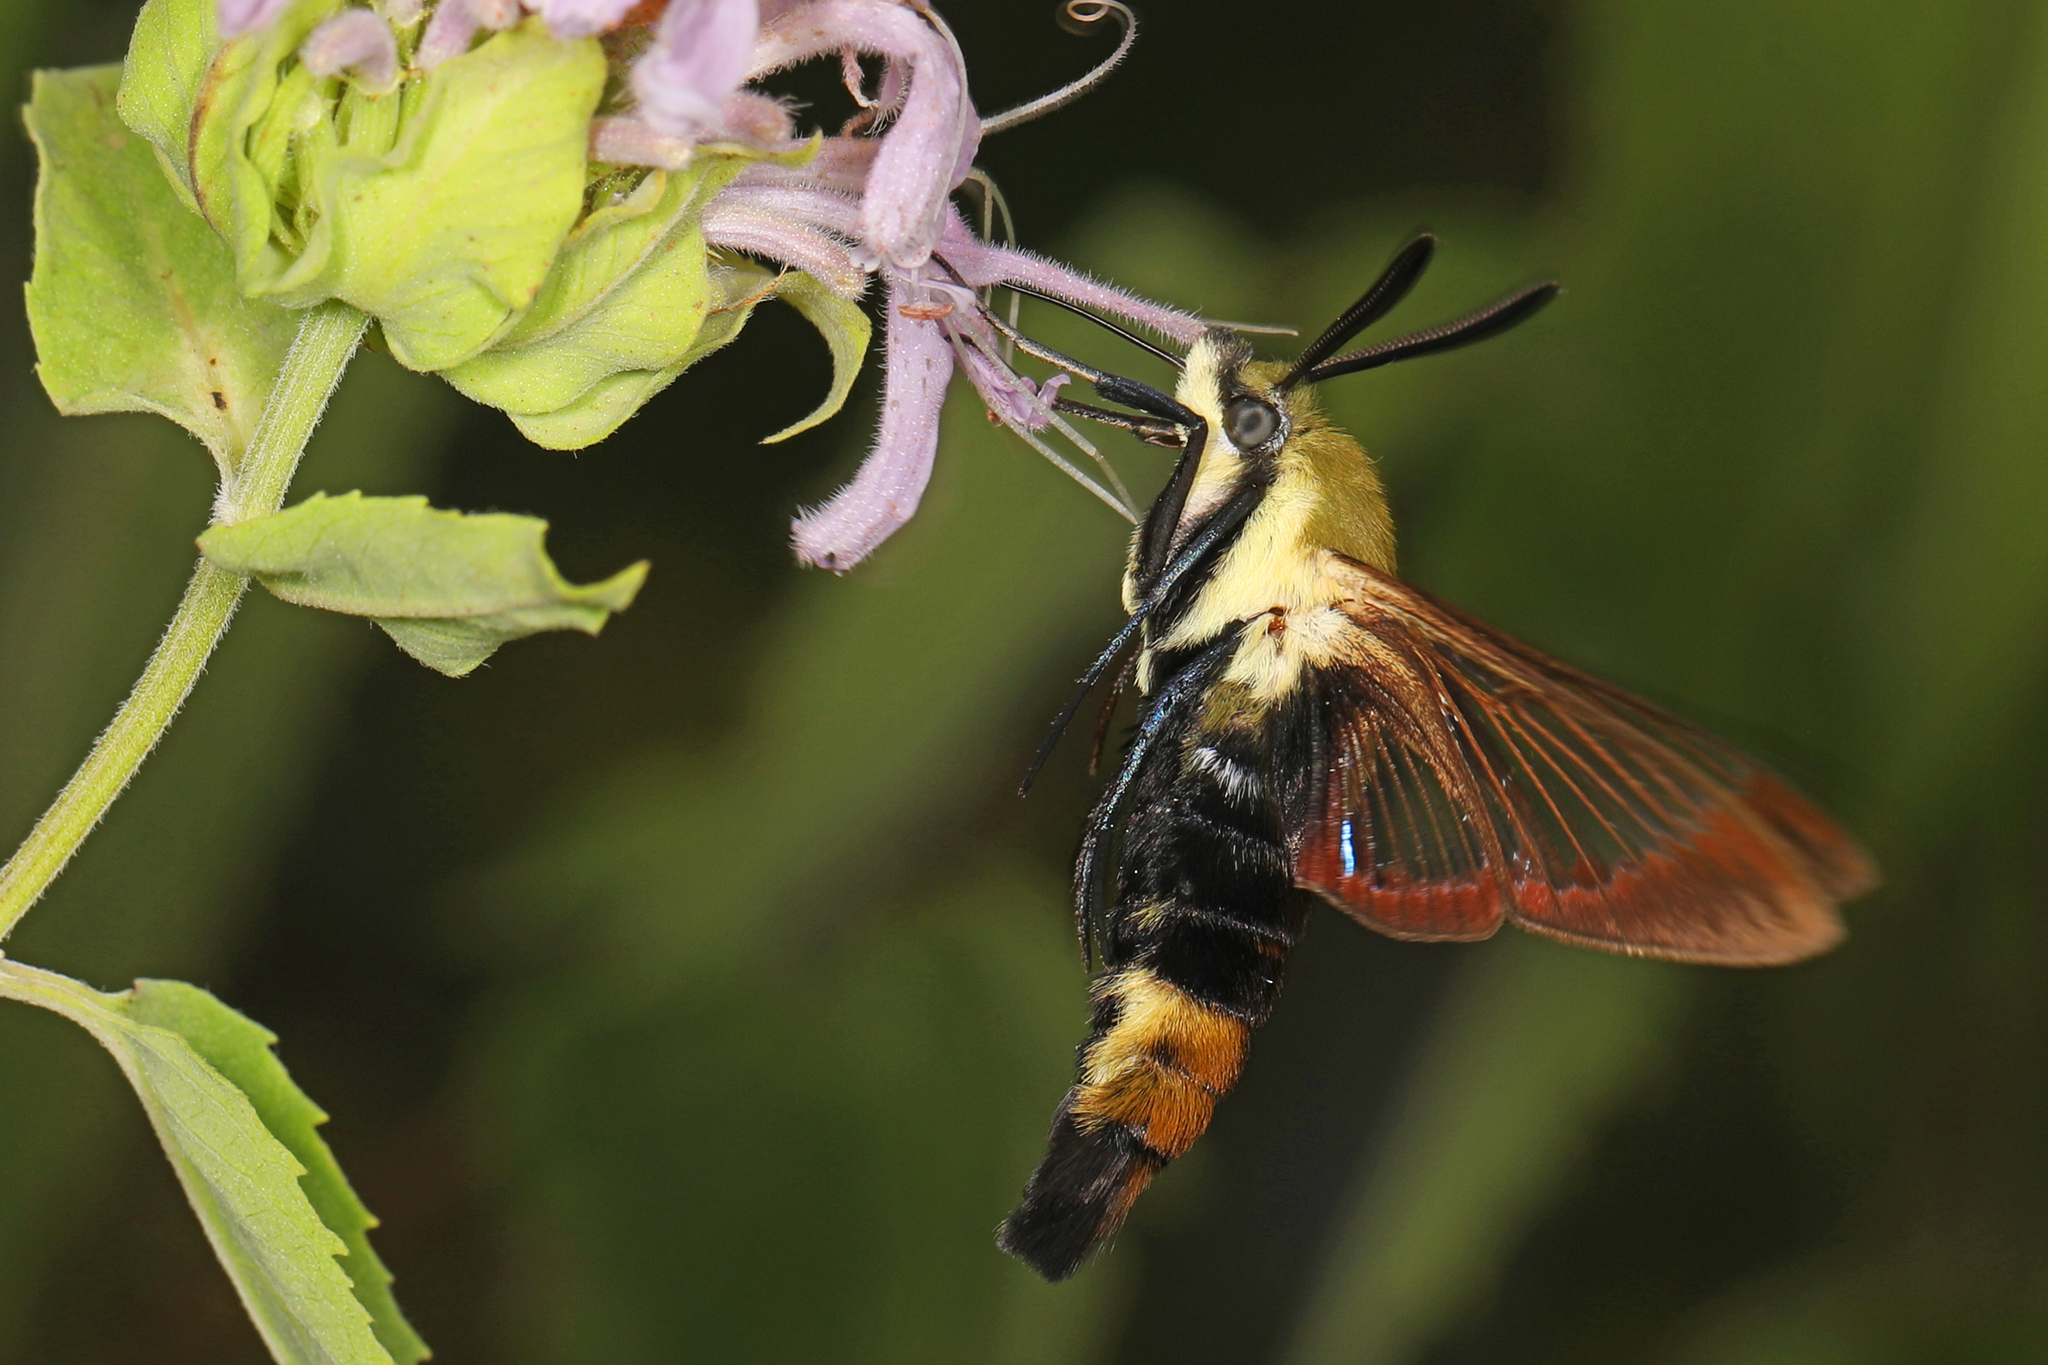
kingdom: Animalia
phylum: Arthropoda
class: Insecta
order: Lepidoptera
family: Sphingidae
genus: Hemaris
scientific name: Hemaris diffinis
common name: Bumblebee moth
